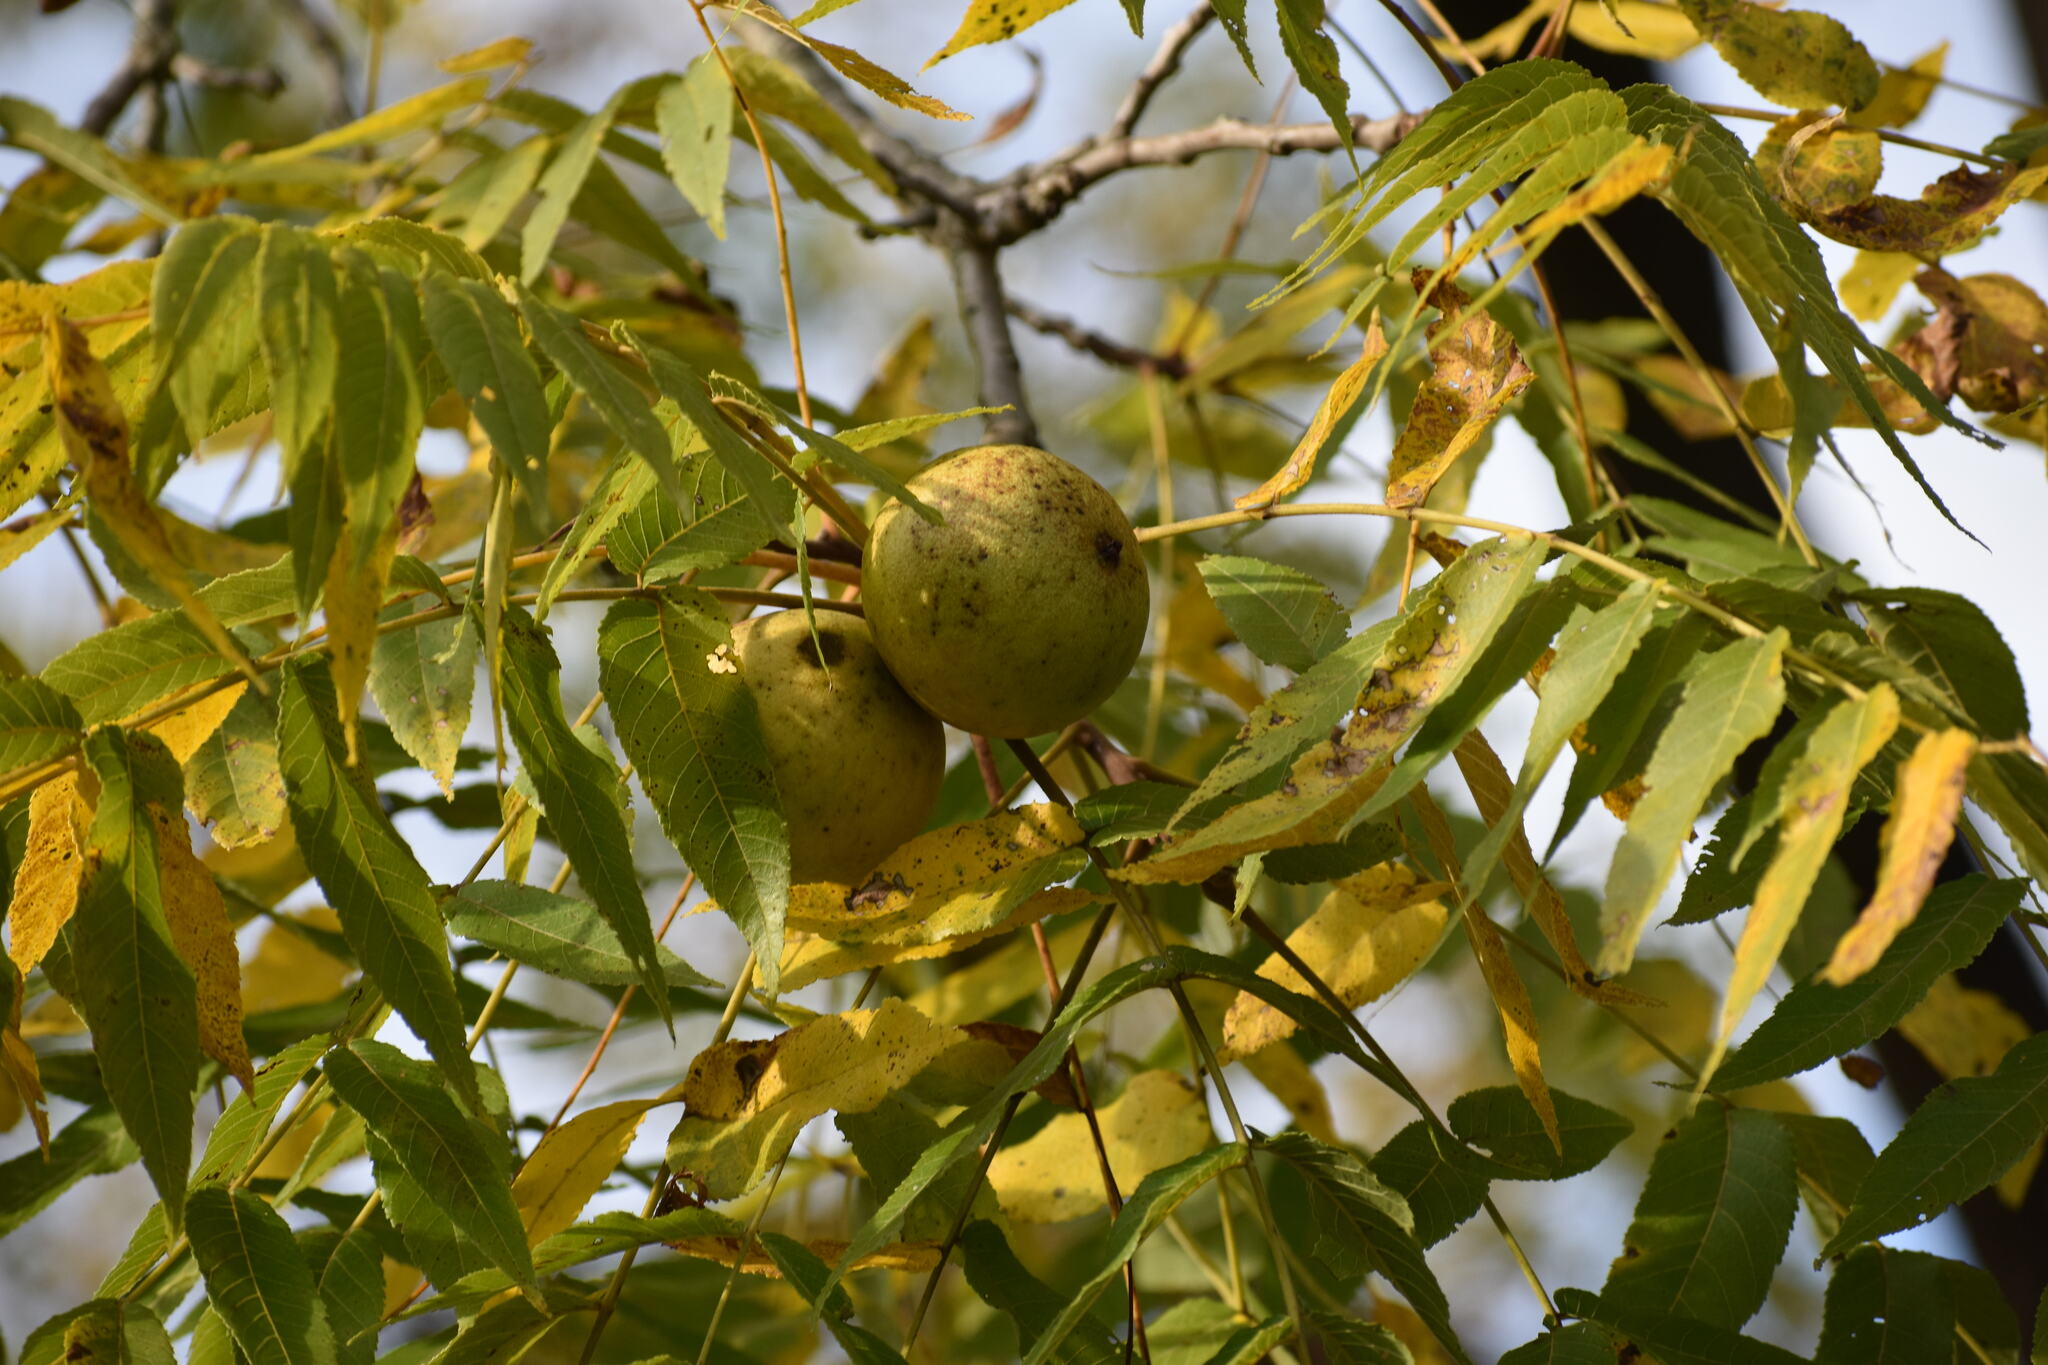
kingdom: Plantae
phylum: Tracheophyta
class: Magnoliopsida
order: Fagales
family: Juglandaceae
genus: Juglans
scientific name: Juglans nigra
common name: Black walnut
